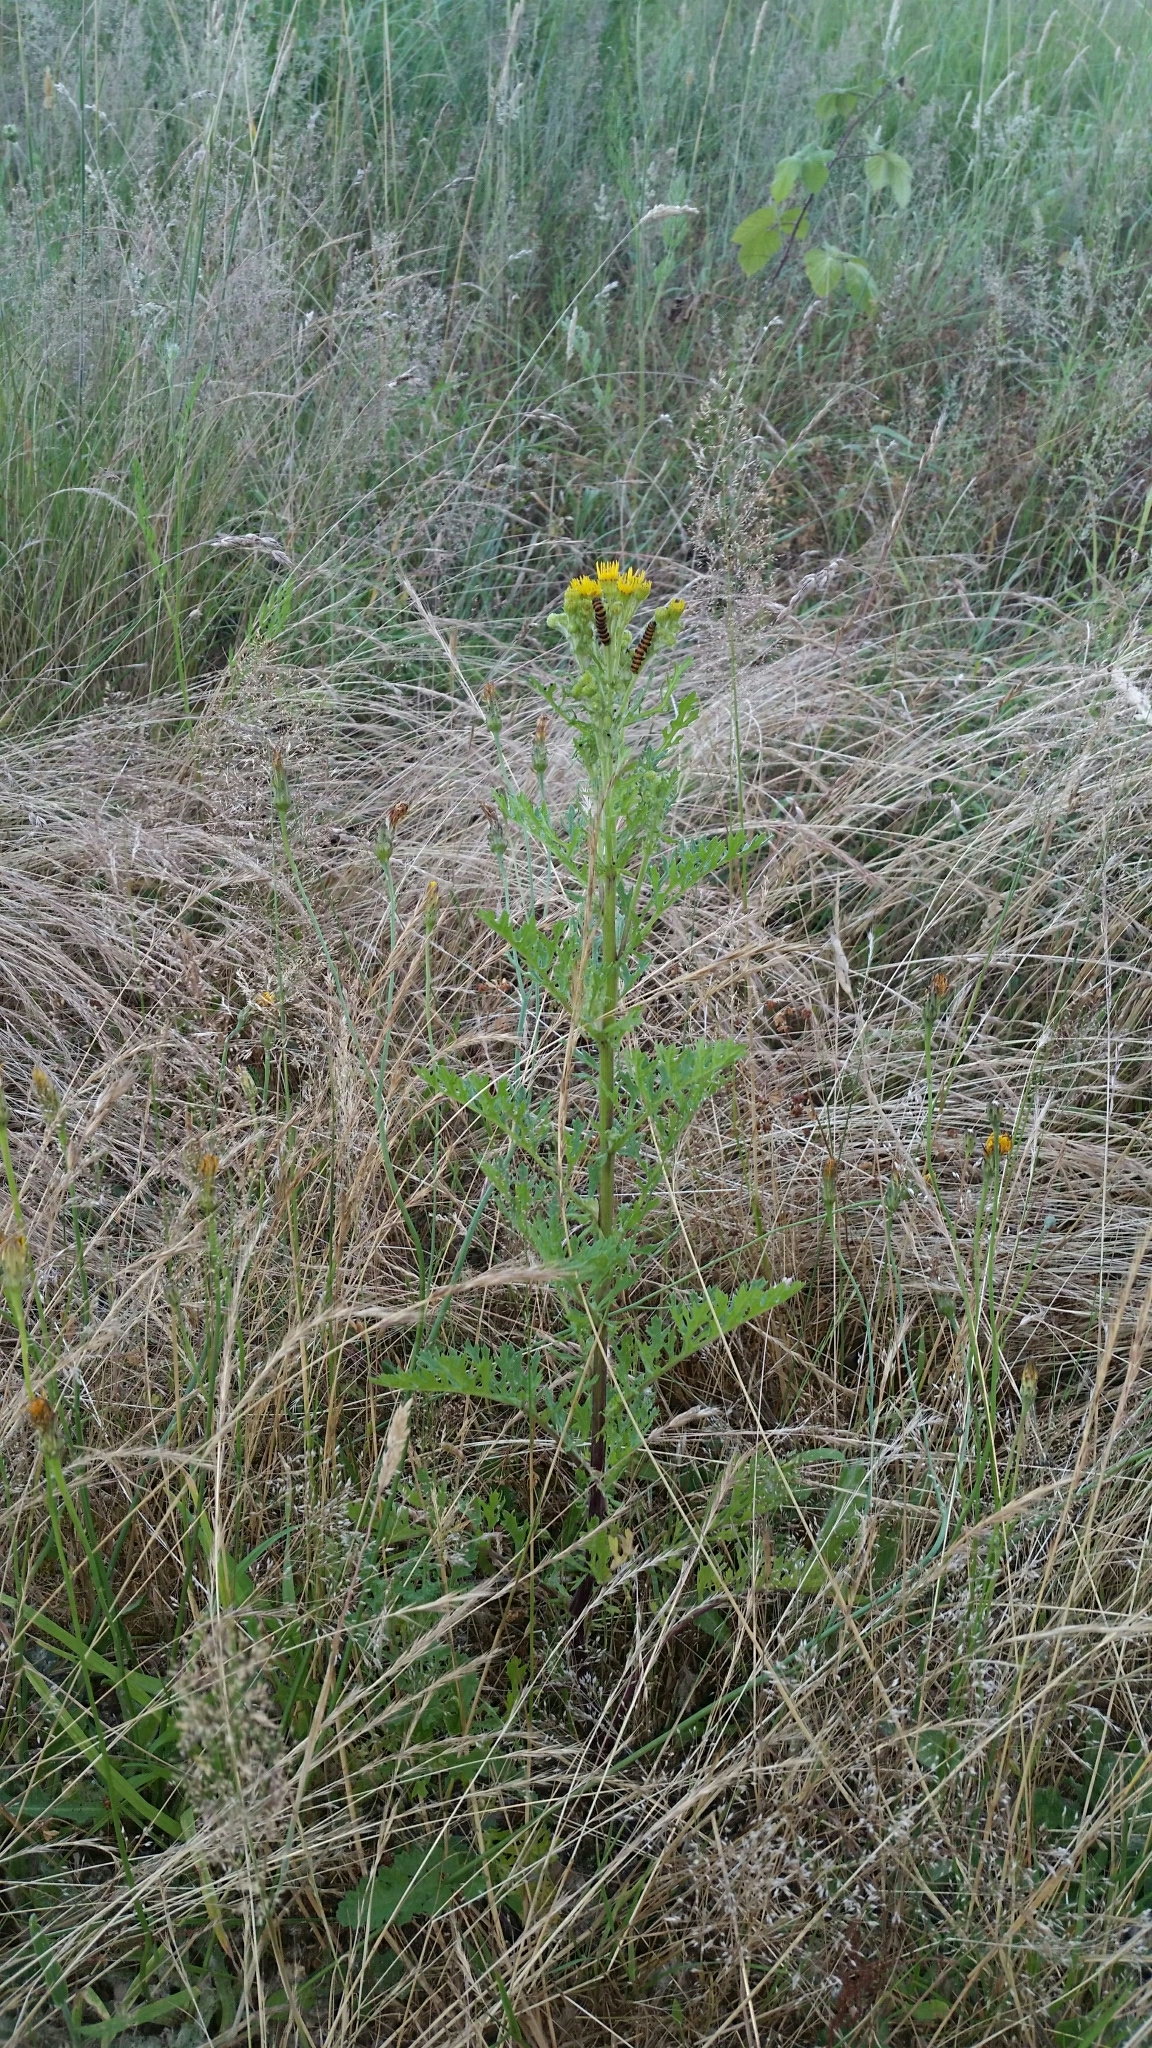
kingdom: Animalia
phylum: Arthropoda
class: Insecta
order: Lepidoptera
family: Erebidae
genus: Tyria
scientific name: Tyria jacobaeae
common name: Cinnabar
